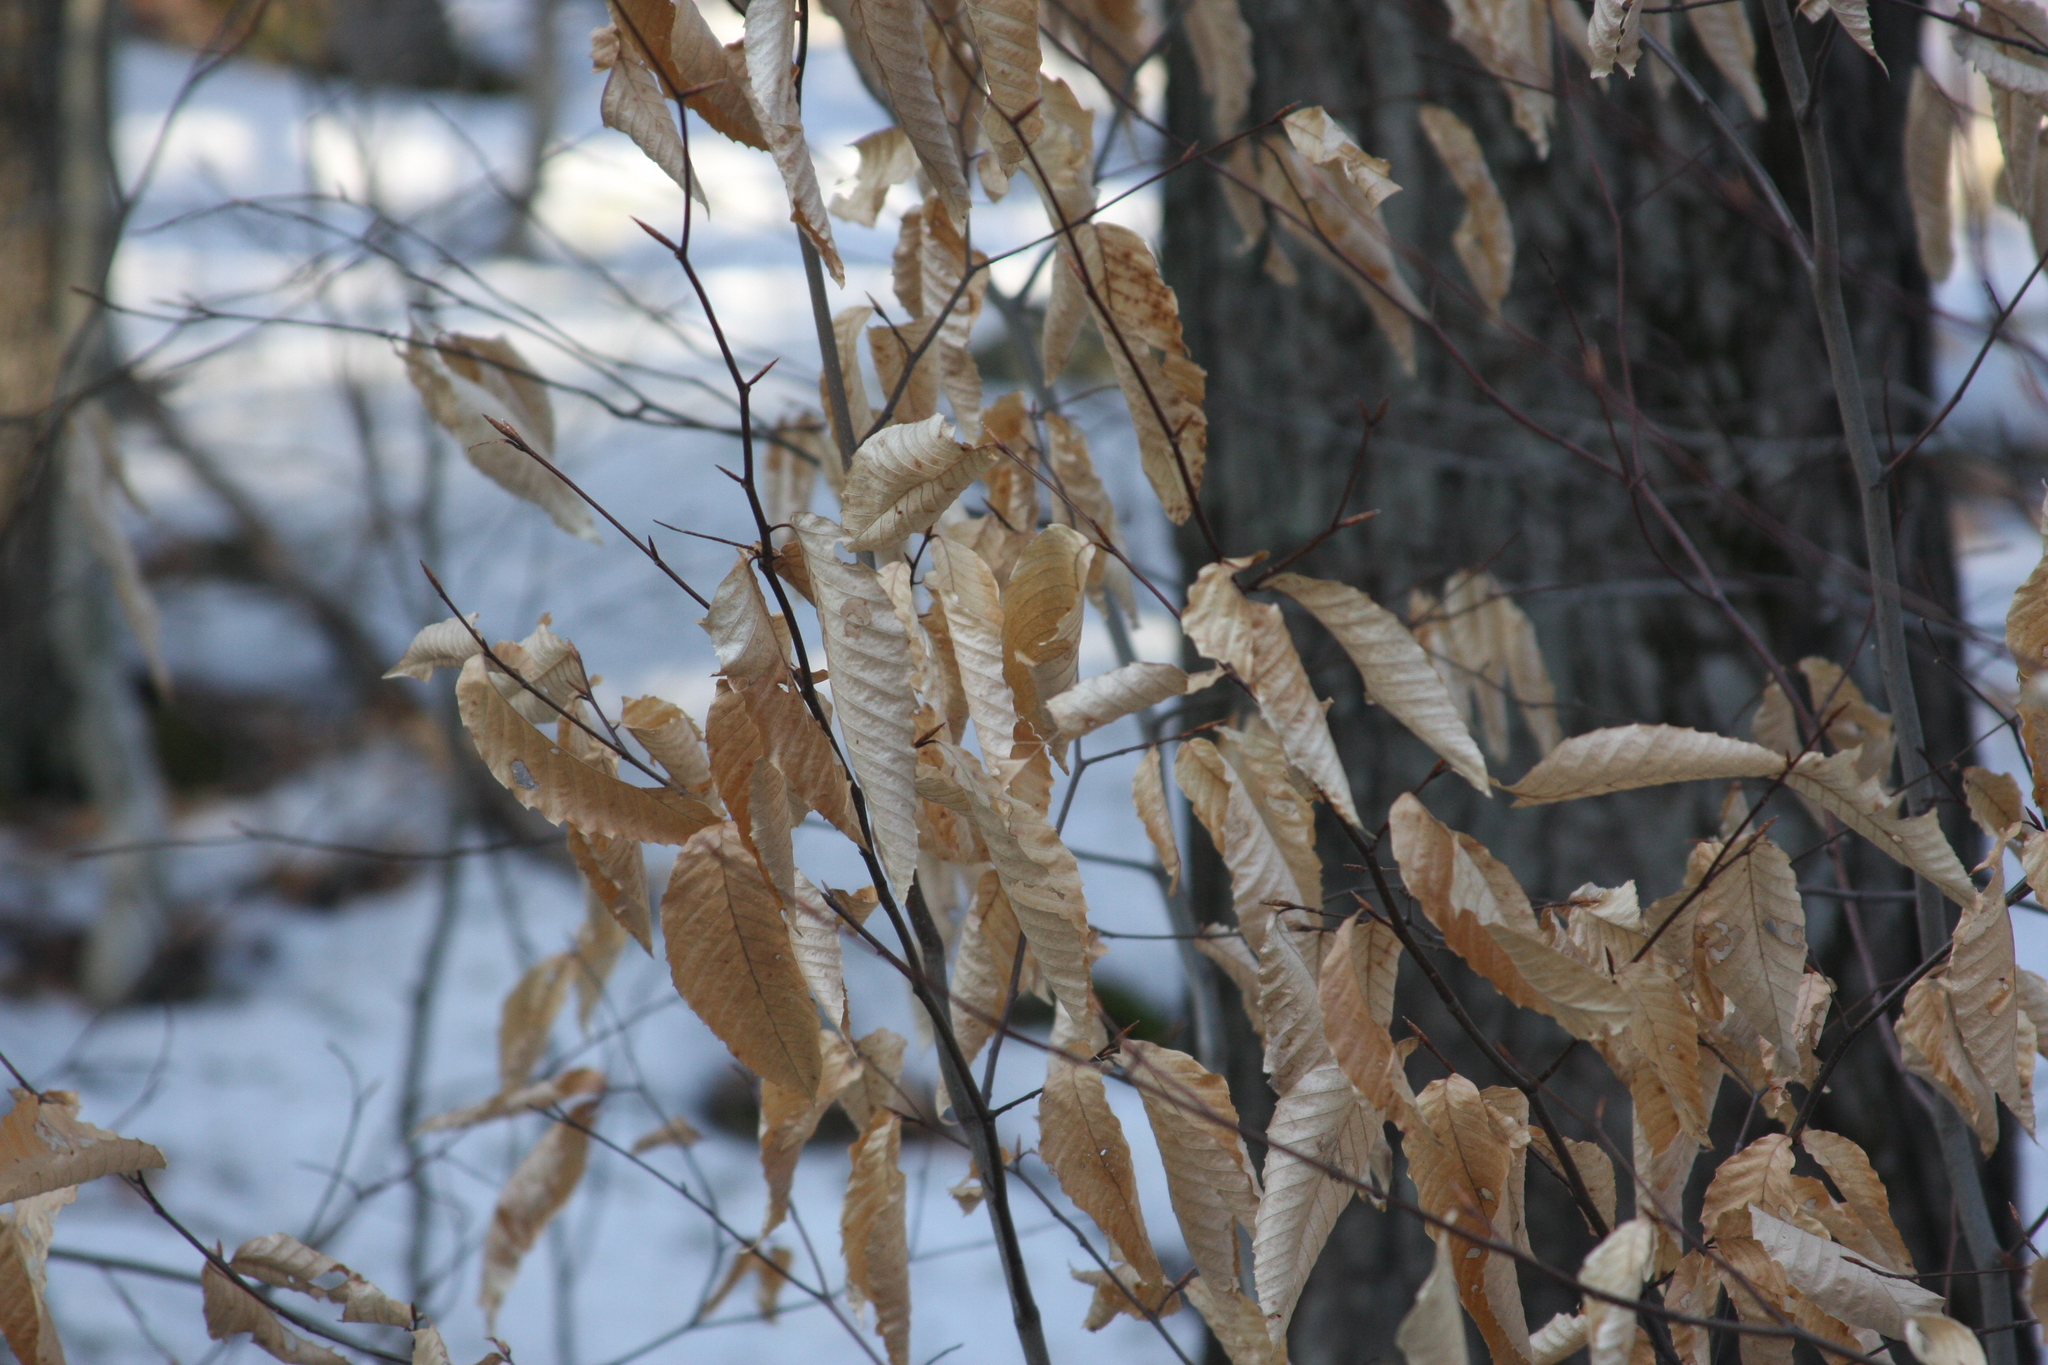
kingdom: Plantae
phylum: Tracheophyta
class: Magnoliopsida
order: Fagales
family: Fagaceae
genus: Fagus
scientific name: Fagus grandifolia
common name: American beech
